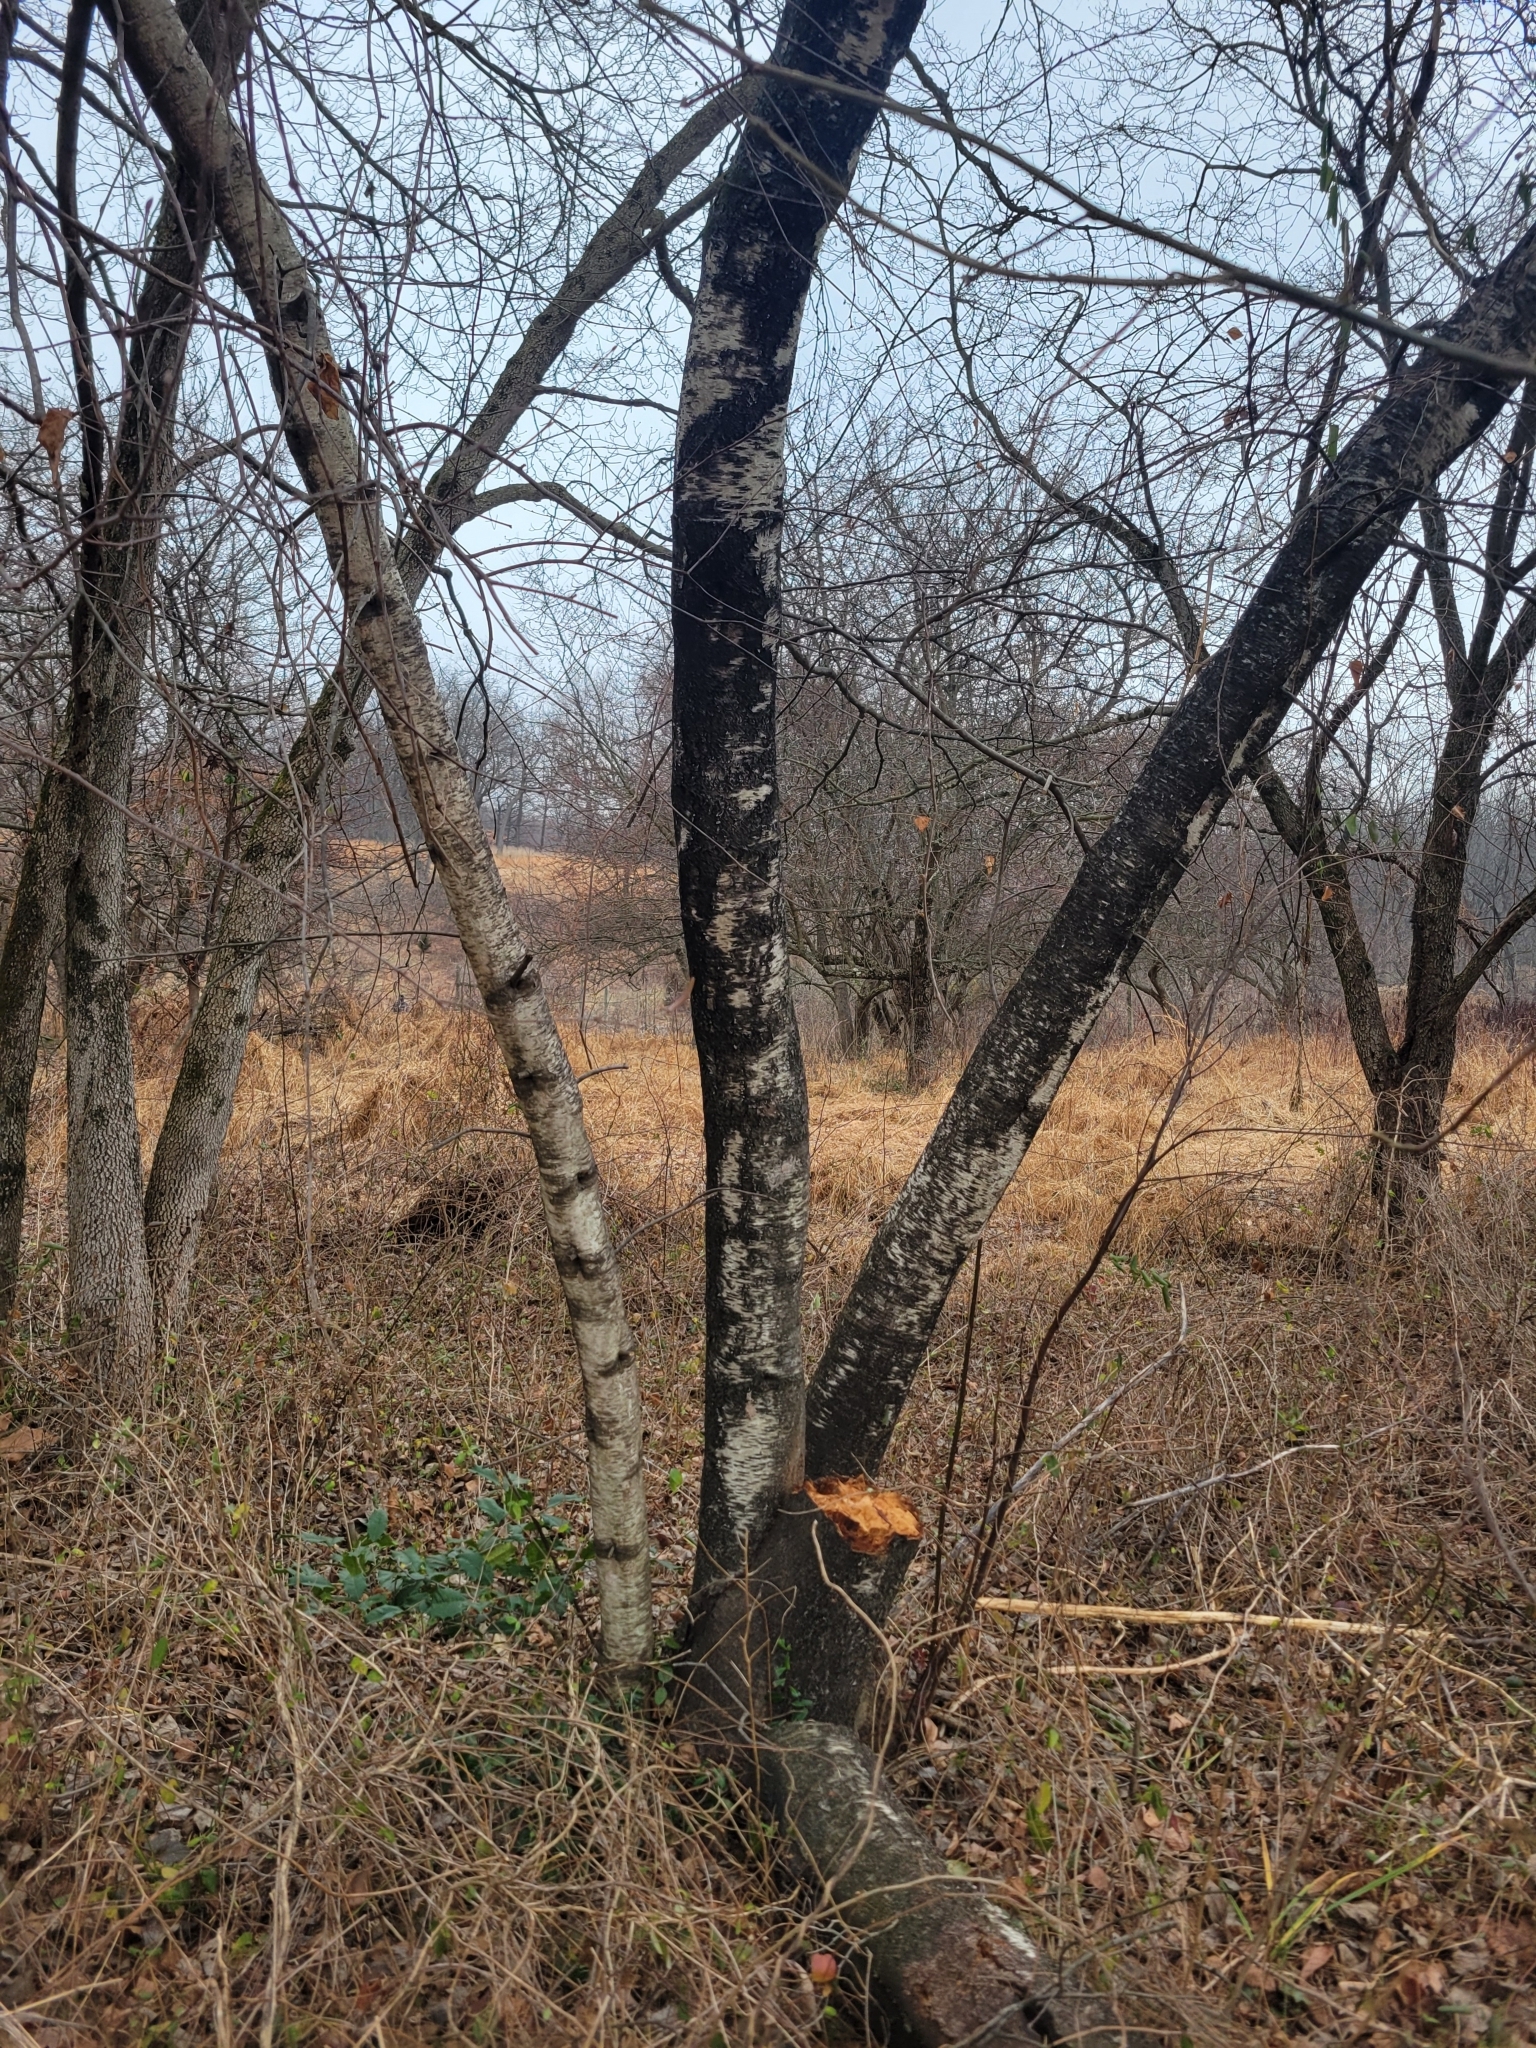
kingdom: Plantae
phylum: Tracheophyta
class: Magnoliopsida
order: Fagales
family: Betulaceae
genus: Betula
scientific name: Betula populifolia
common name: Fire birch
